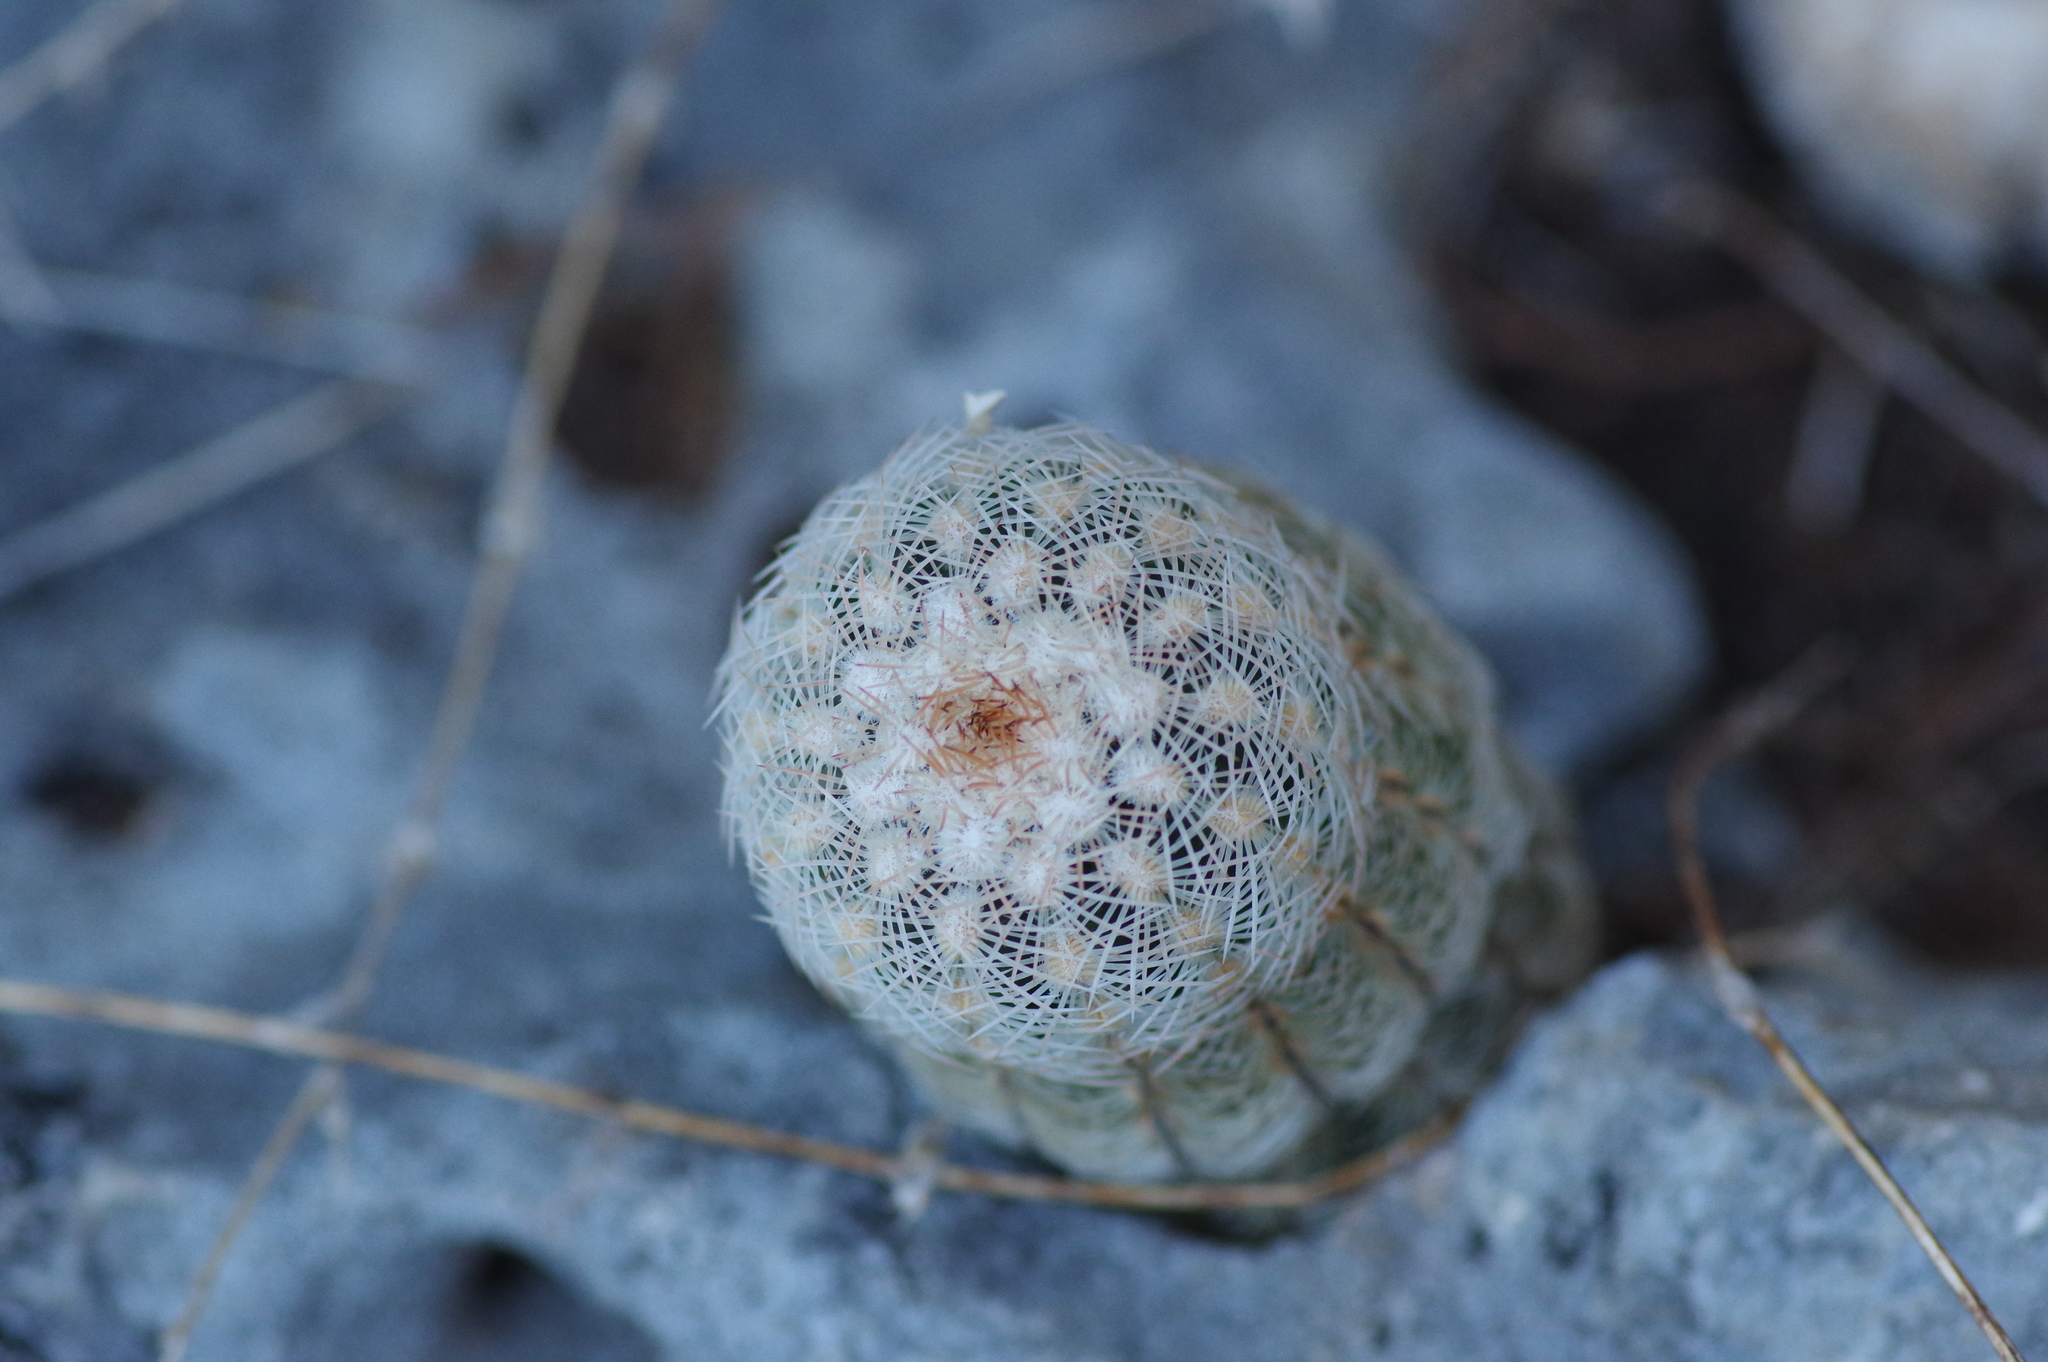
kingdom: Plantae
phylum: Tracheophyta
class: Magnoliopsida
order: Caryophyllales
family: Cactaceae
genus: Echinocereus
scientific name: Echinocereus reichenbachii
